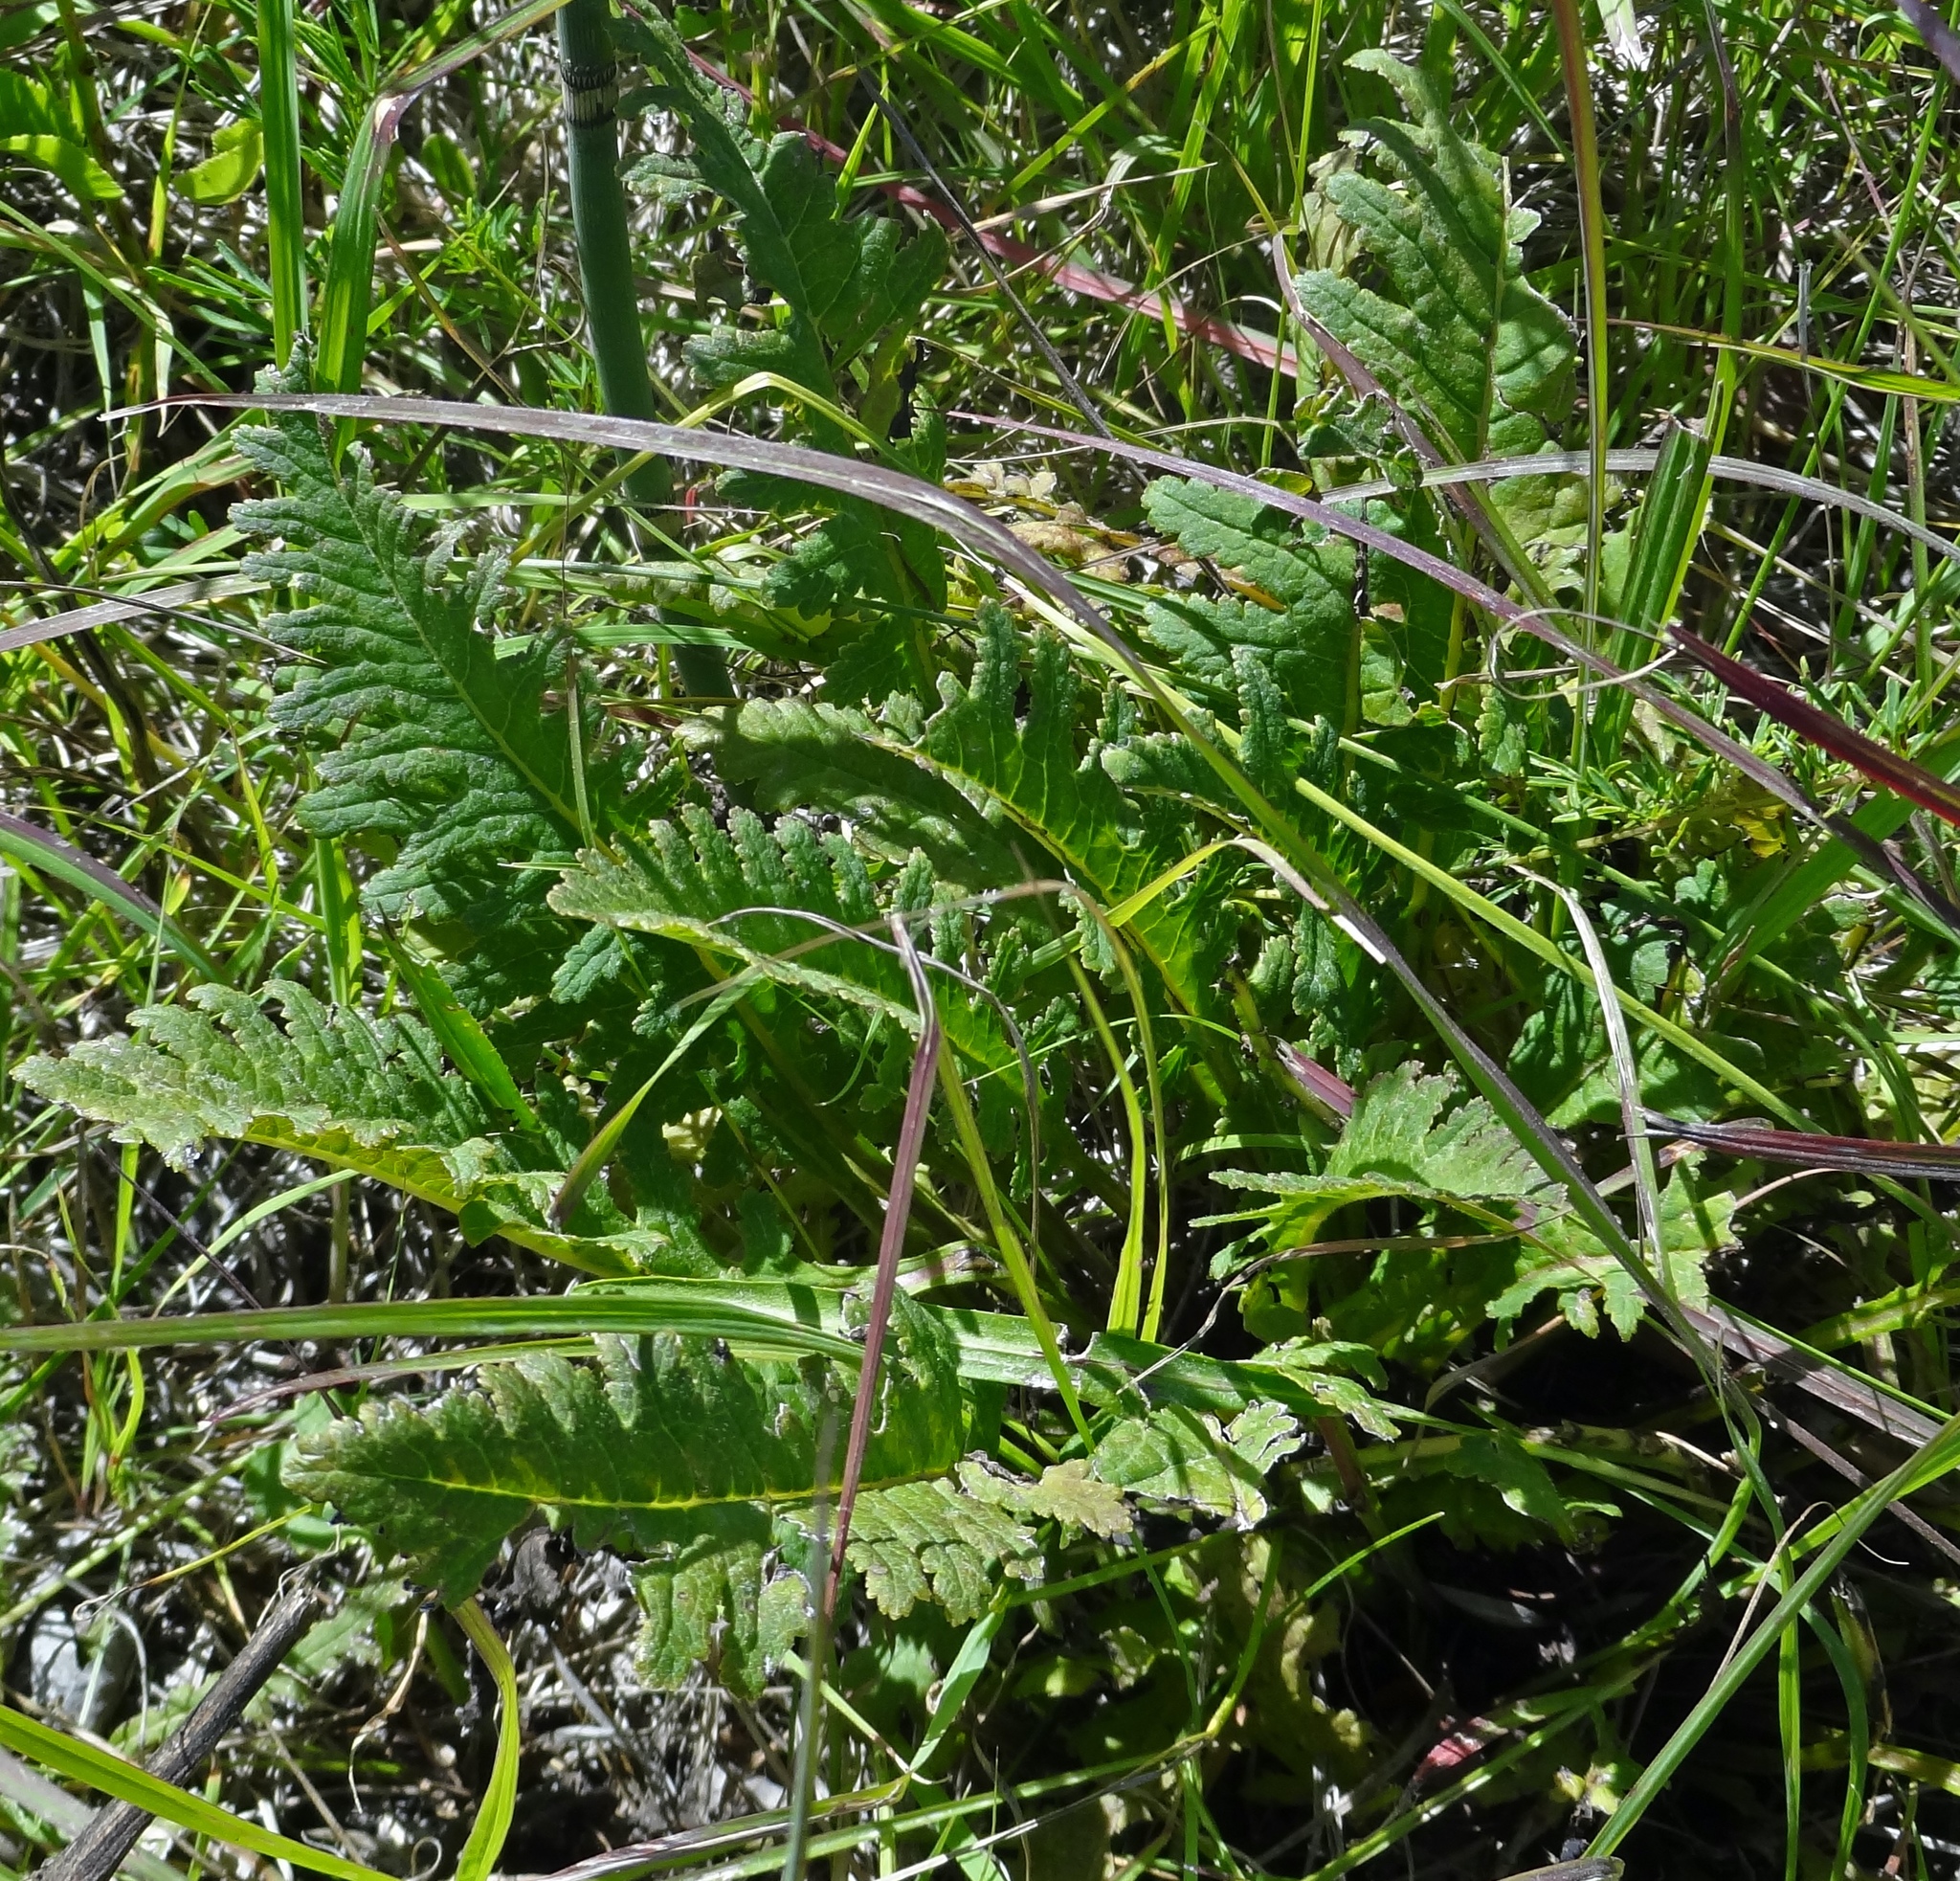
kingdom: Plantae
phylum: Tracheophyta
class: Magnoliopsida
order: Lamiales
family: Orobanchaceae
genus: Pedicularis
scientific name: Pedicularis canadensis
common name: Early lousewort
